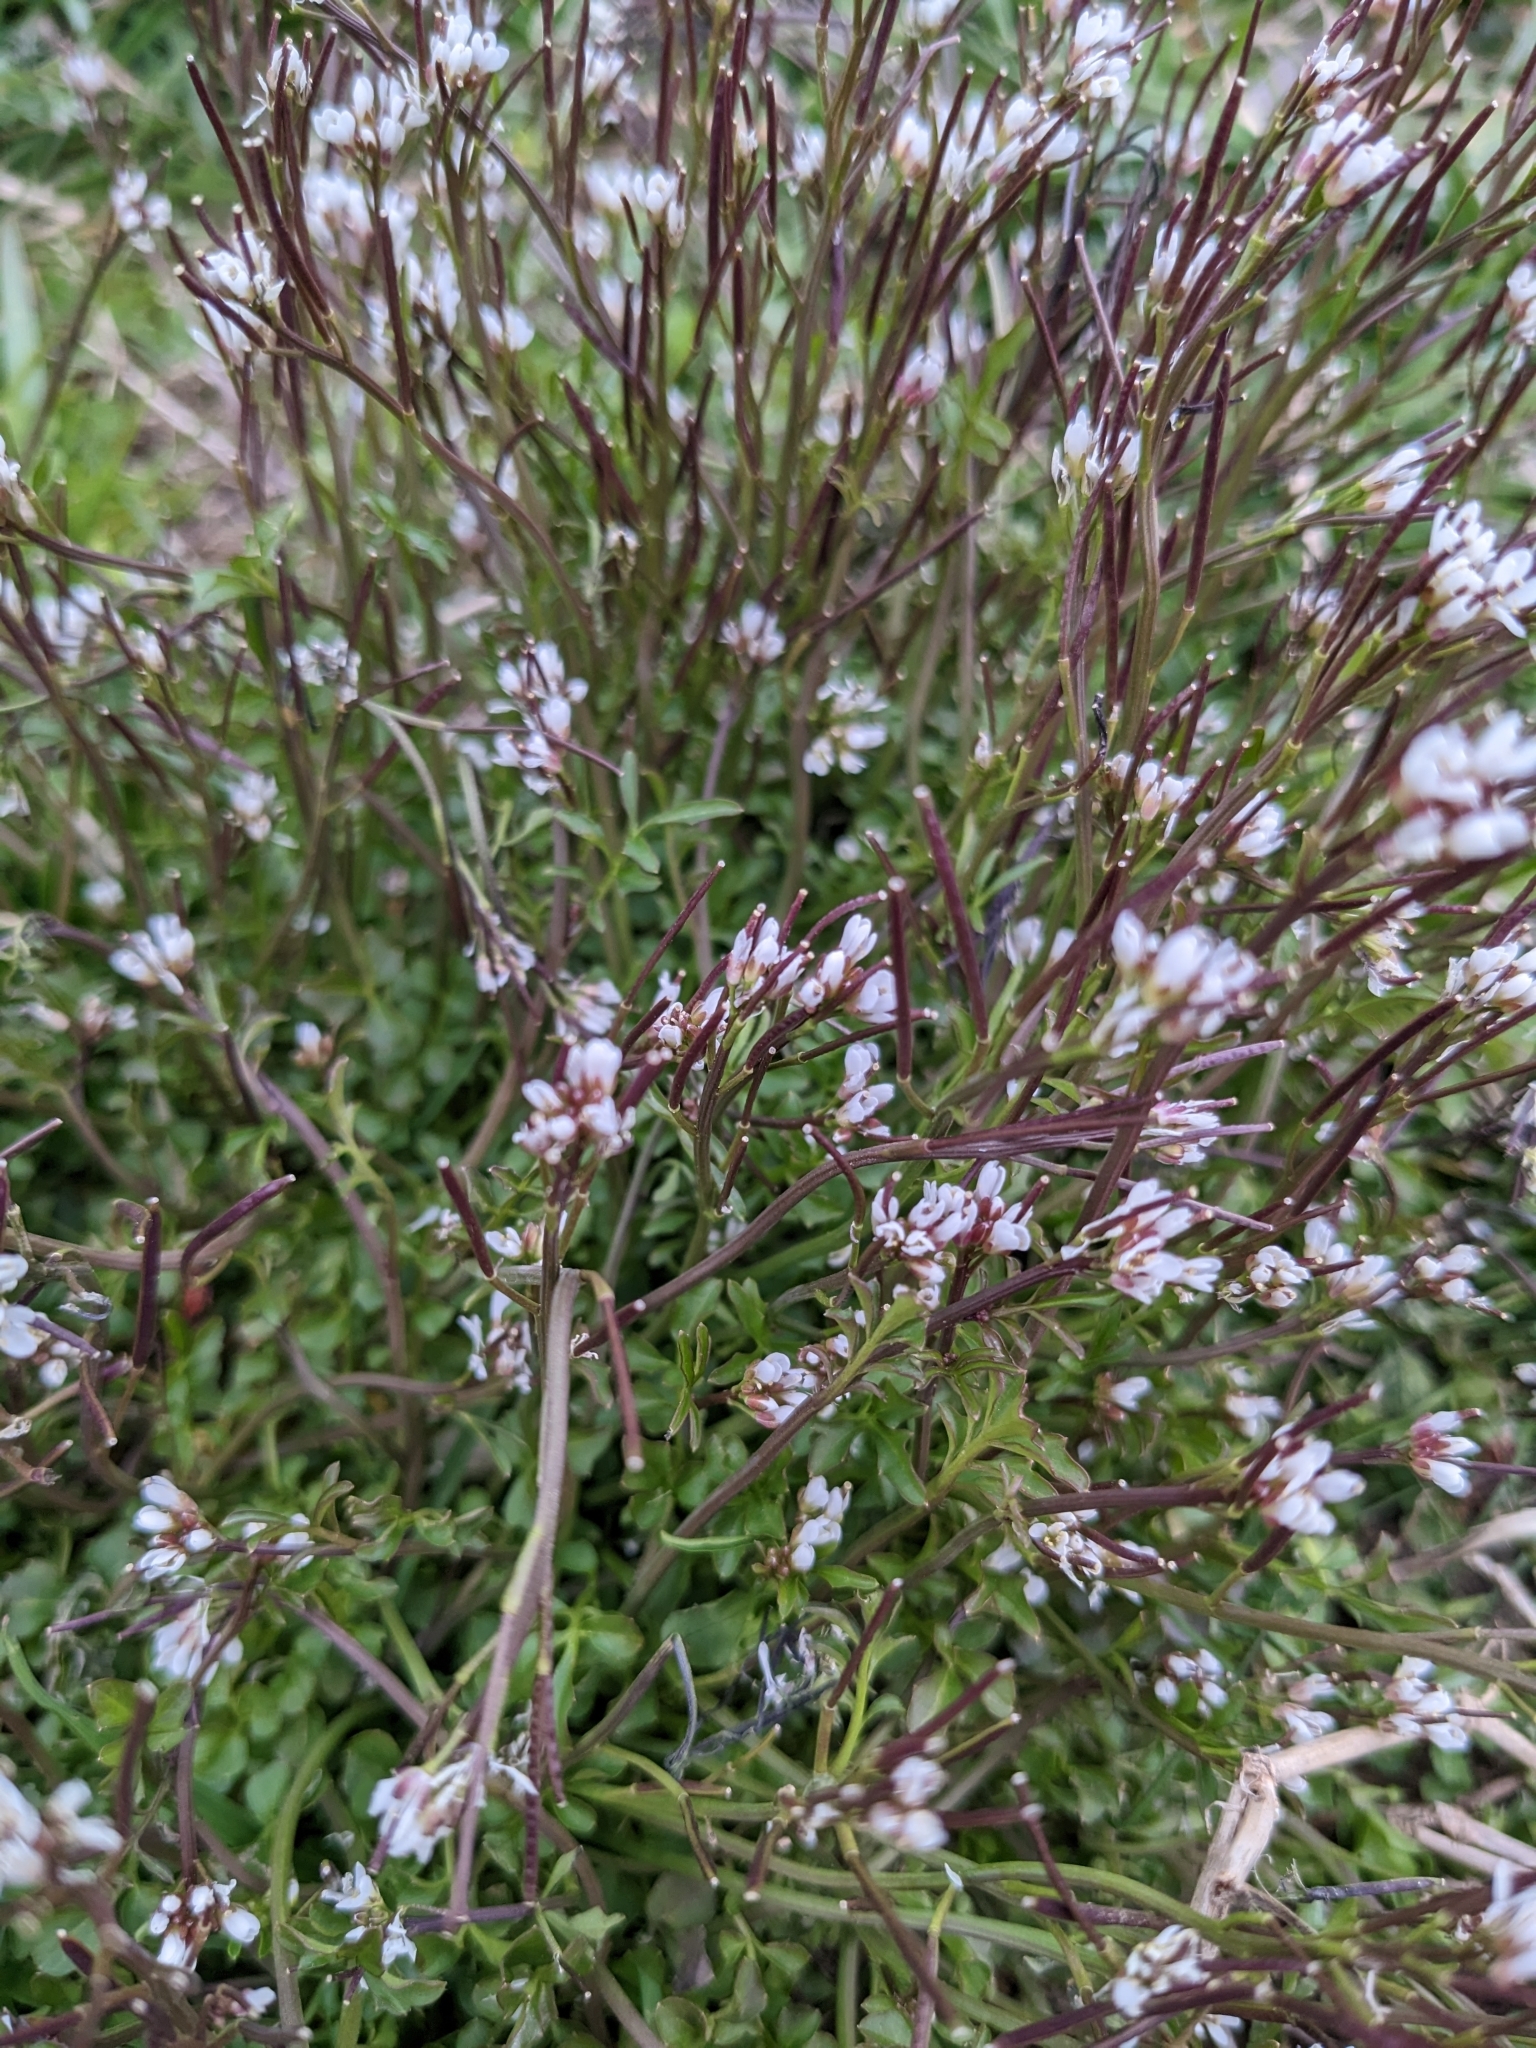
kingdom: Plantae
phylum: Tracheophyta
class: Magnoliopsida
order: Brassicales
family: Brassicaceae
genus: Cardamine
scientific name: Cardamine hirsuta
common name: Hairy bittercress
